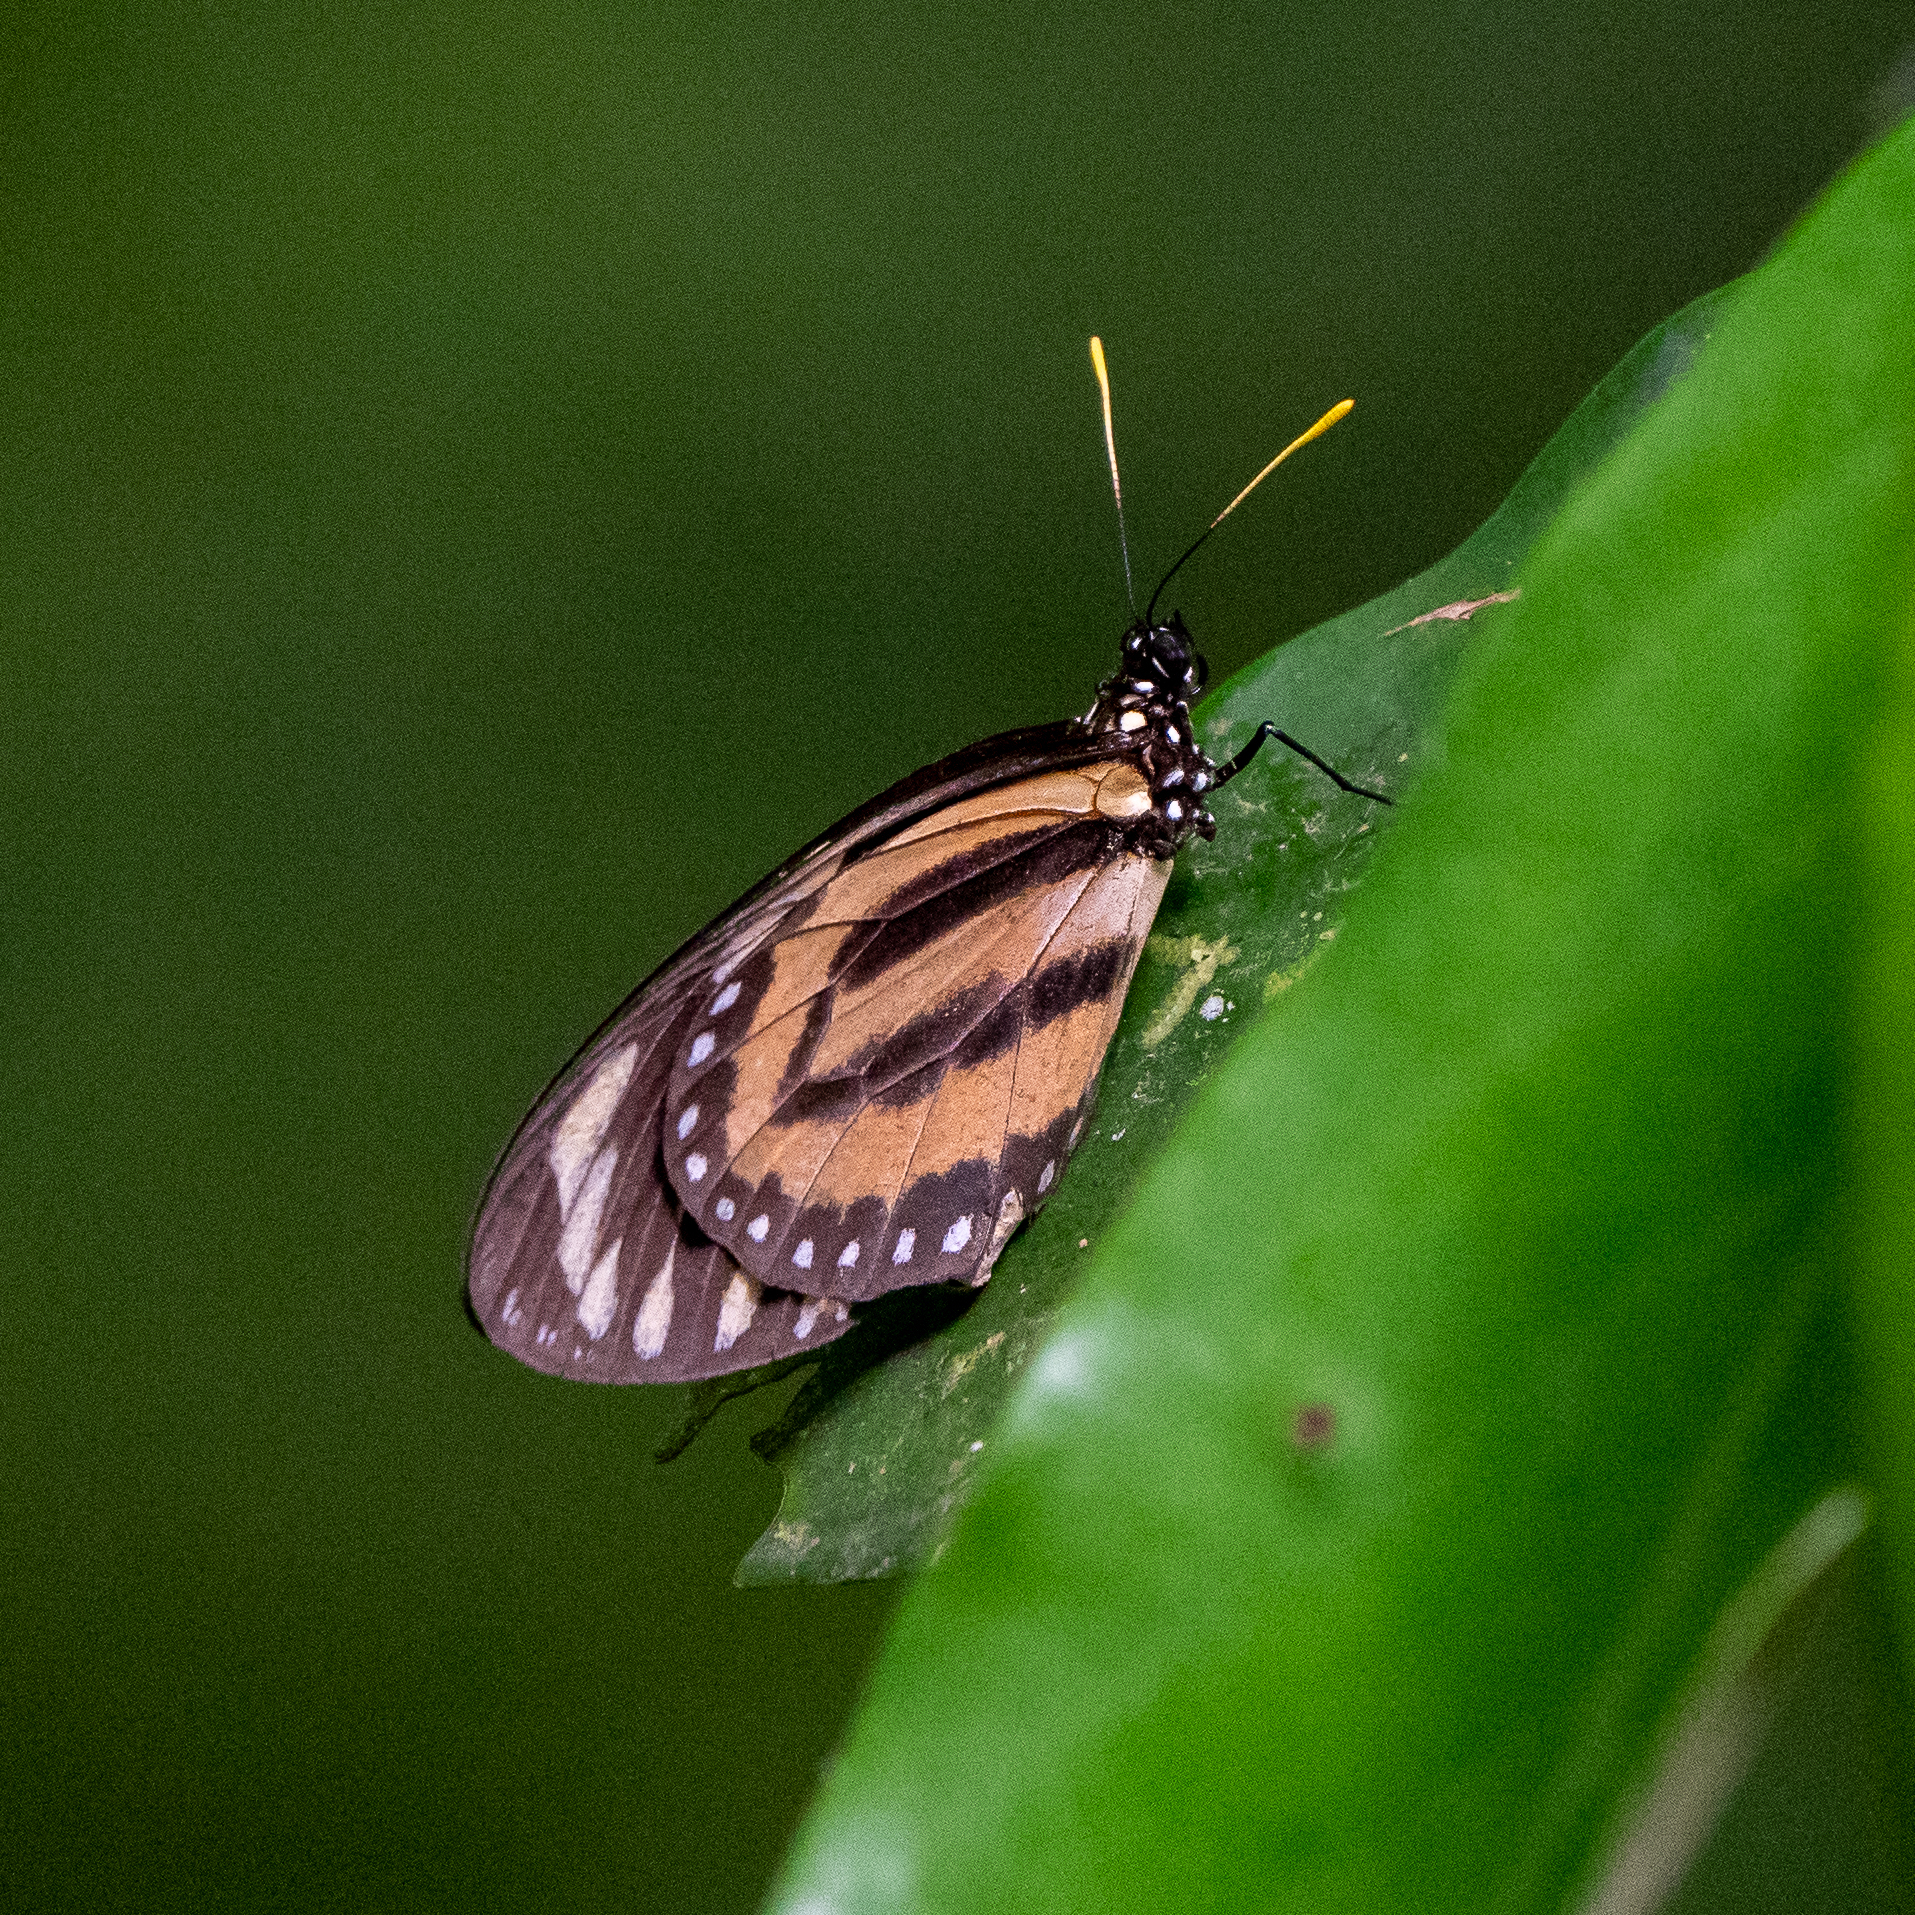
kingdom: Animalia
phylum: Arthropoda
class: Insecta
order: Lepidoptera
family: Nymphalidae
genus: Lycorea
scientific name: Lycorea cleobaea
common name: Tiger mimic-queen
